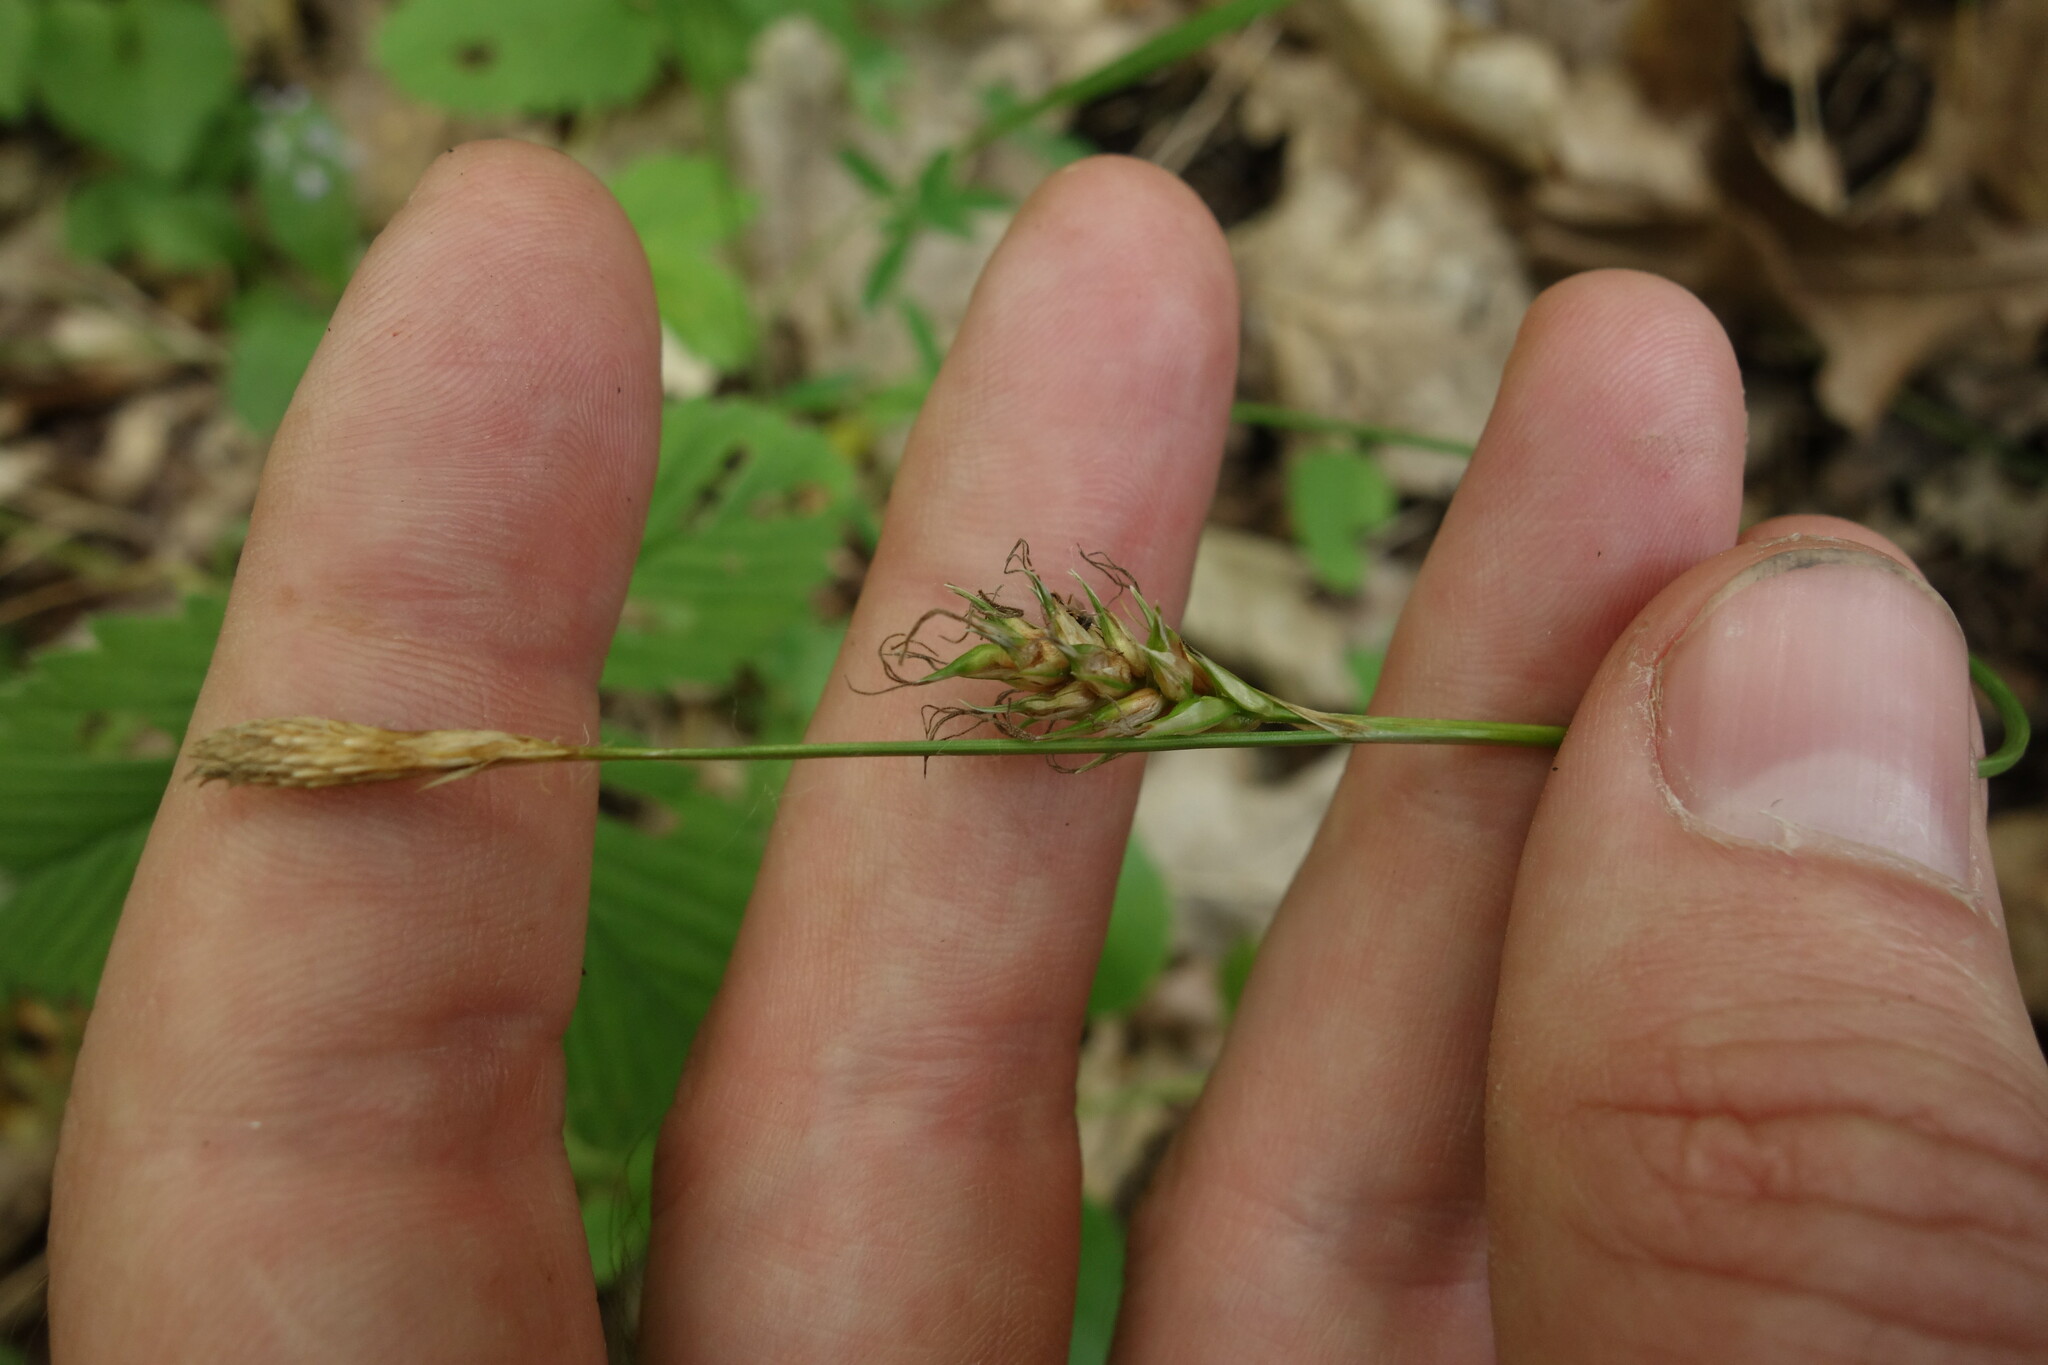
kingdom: Plantae
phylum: Tracheophyta
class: Liliopsida
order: Poales
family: Cyperaceae
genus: Carex
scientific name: Carex michelii
